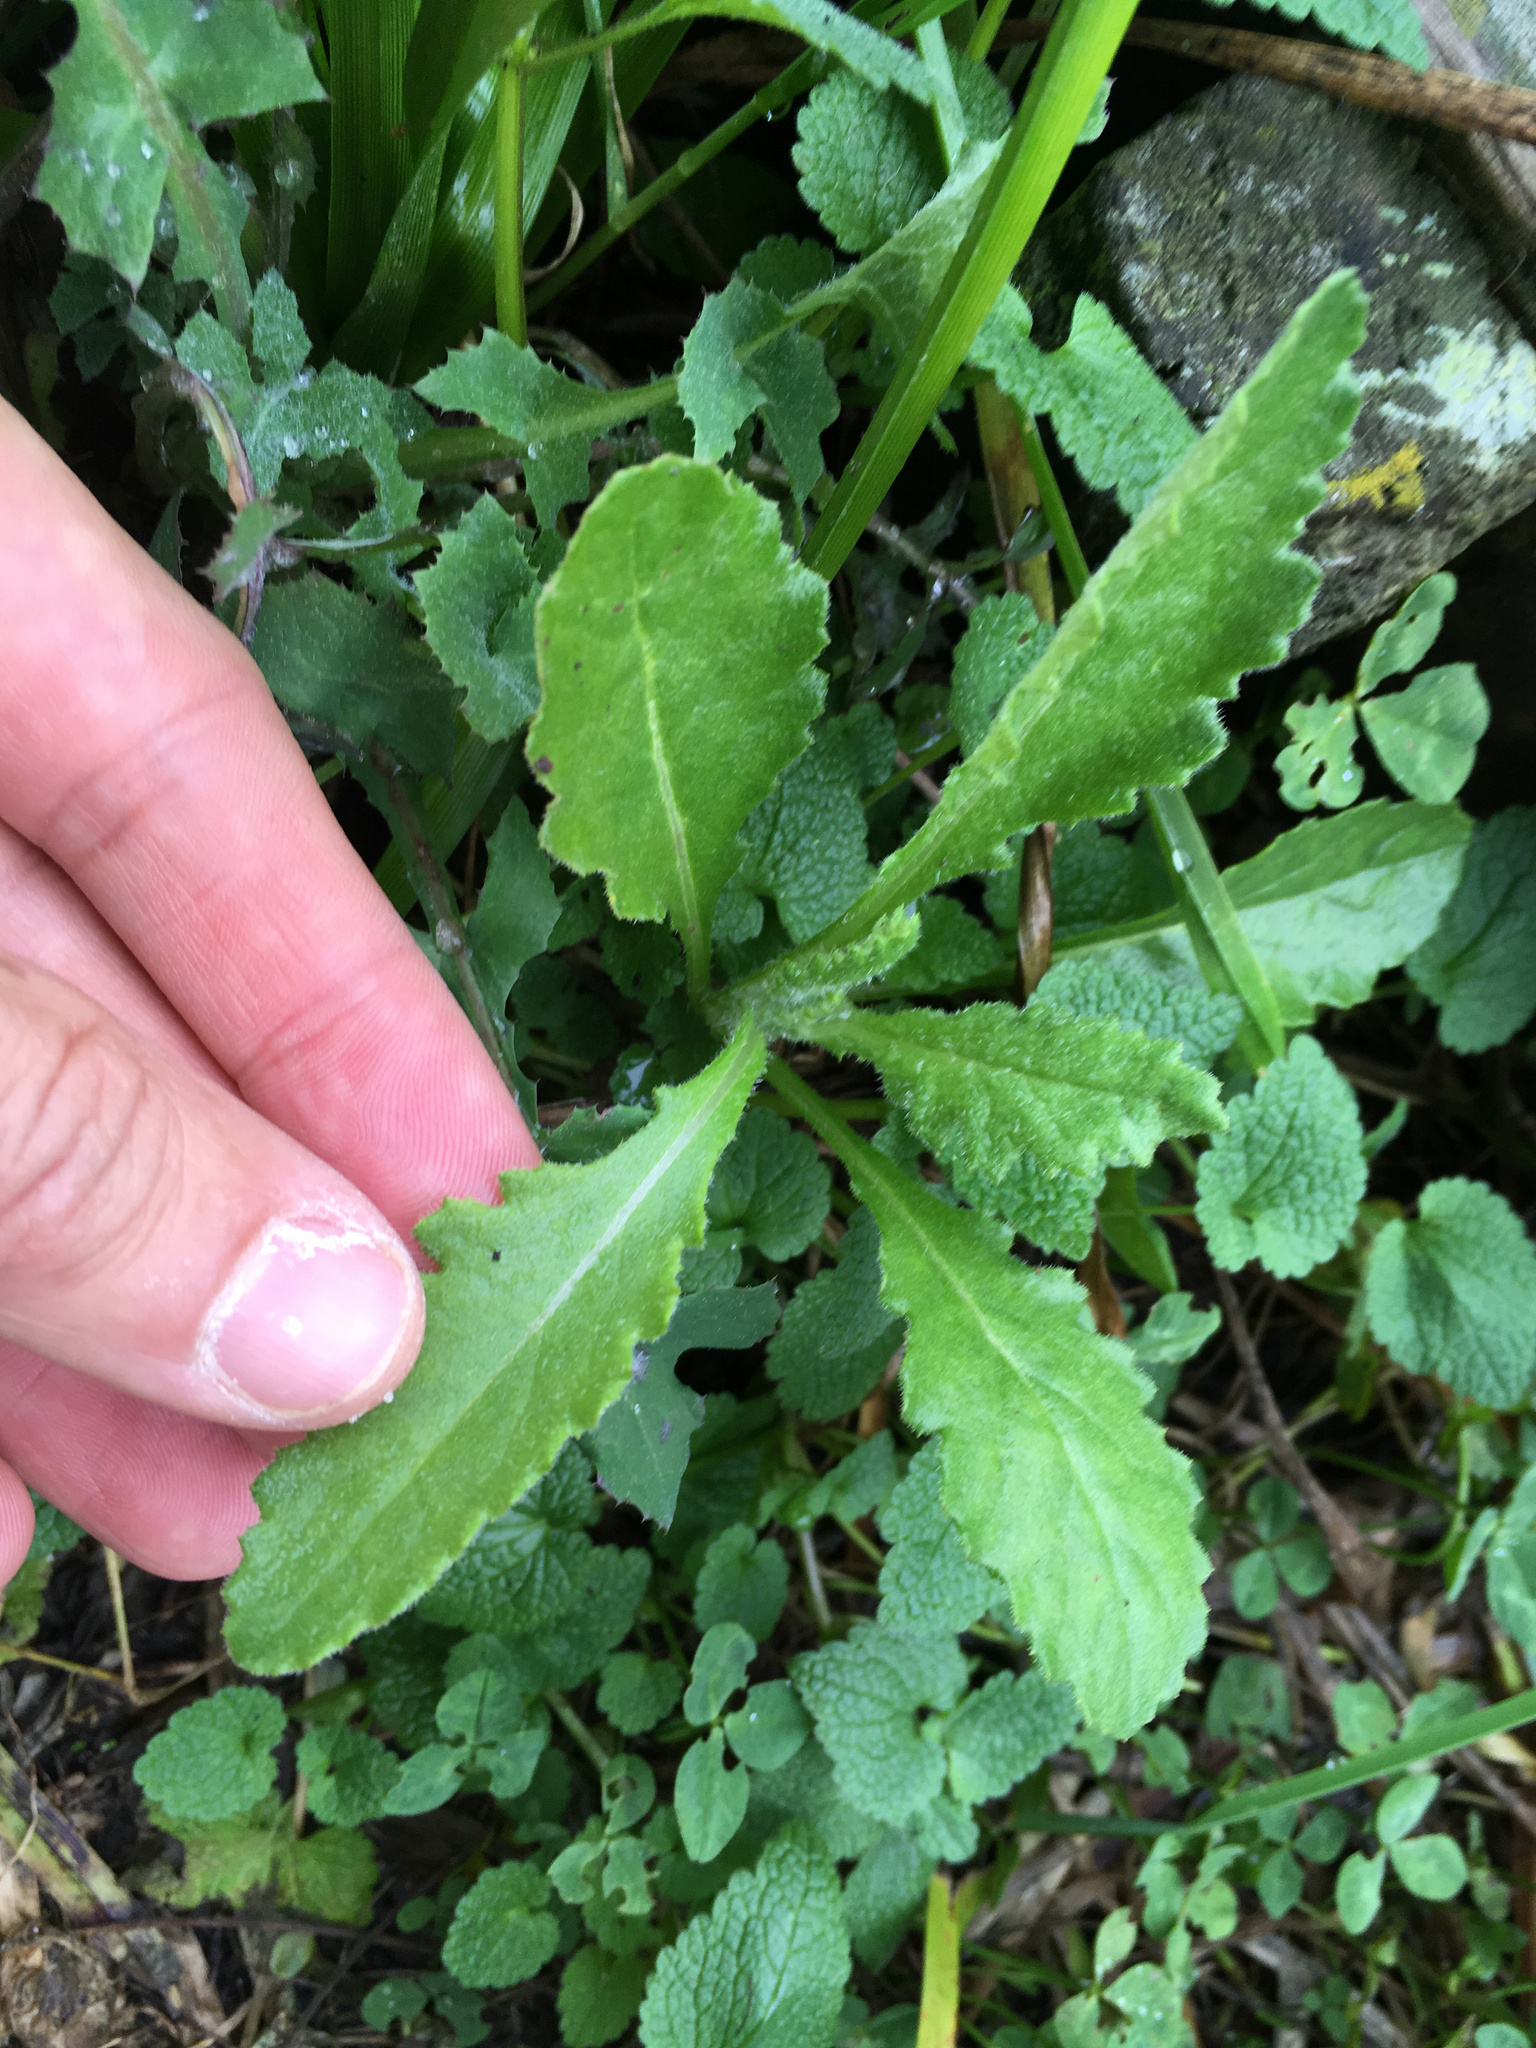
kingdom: Plantae
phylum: Tracheophyta
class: Magnoliopsida
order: Asterales
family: Asteraceae
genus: Senecio
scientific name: Senecio glomeratus
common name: Cutleaf burnweed
